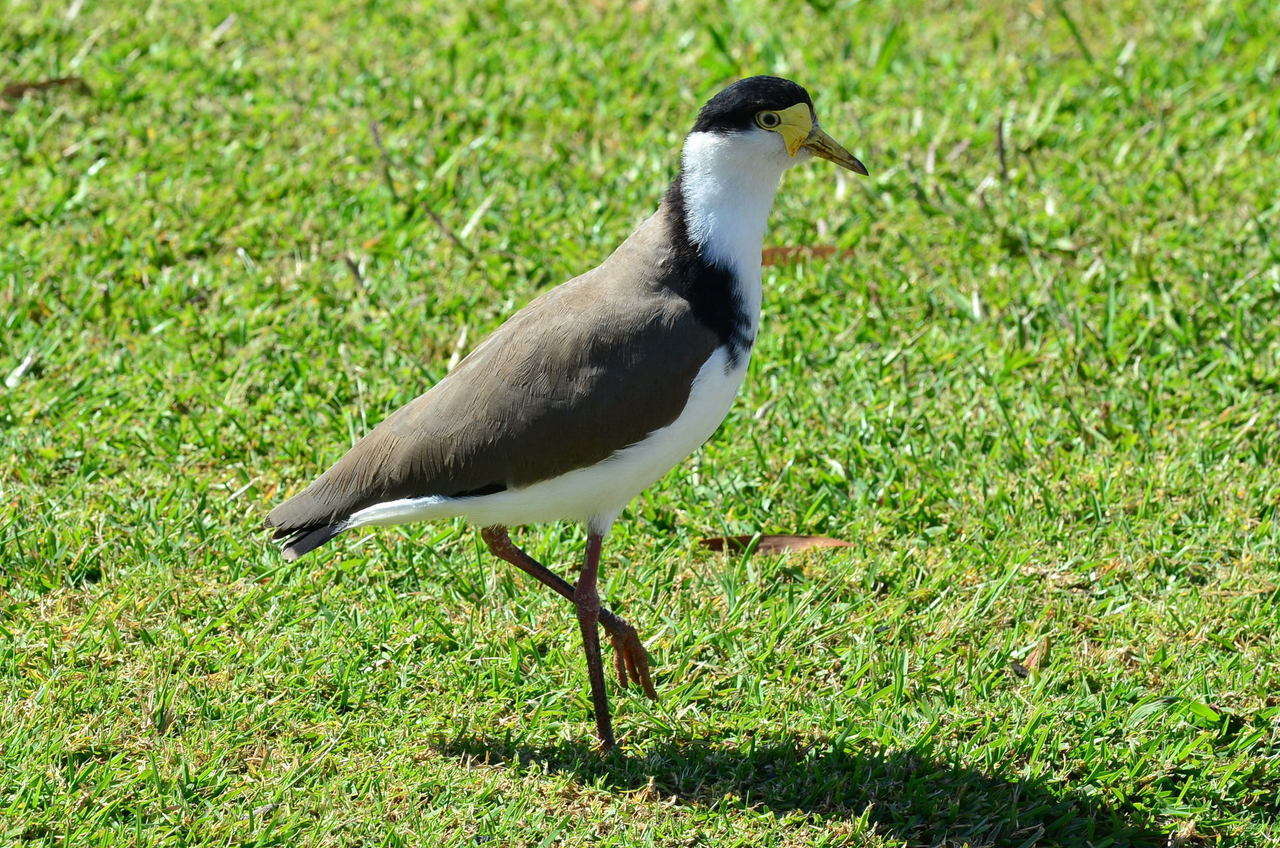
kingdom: Animalia
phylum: Chordata
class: Aves
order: Charadriiformes
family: Charadriidae
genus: Vanellus
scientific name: Vanellus miles
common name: Masked lapwing
